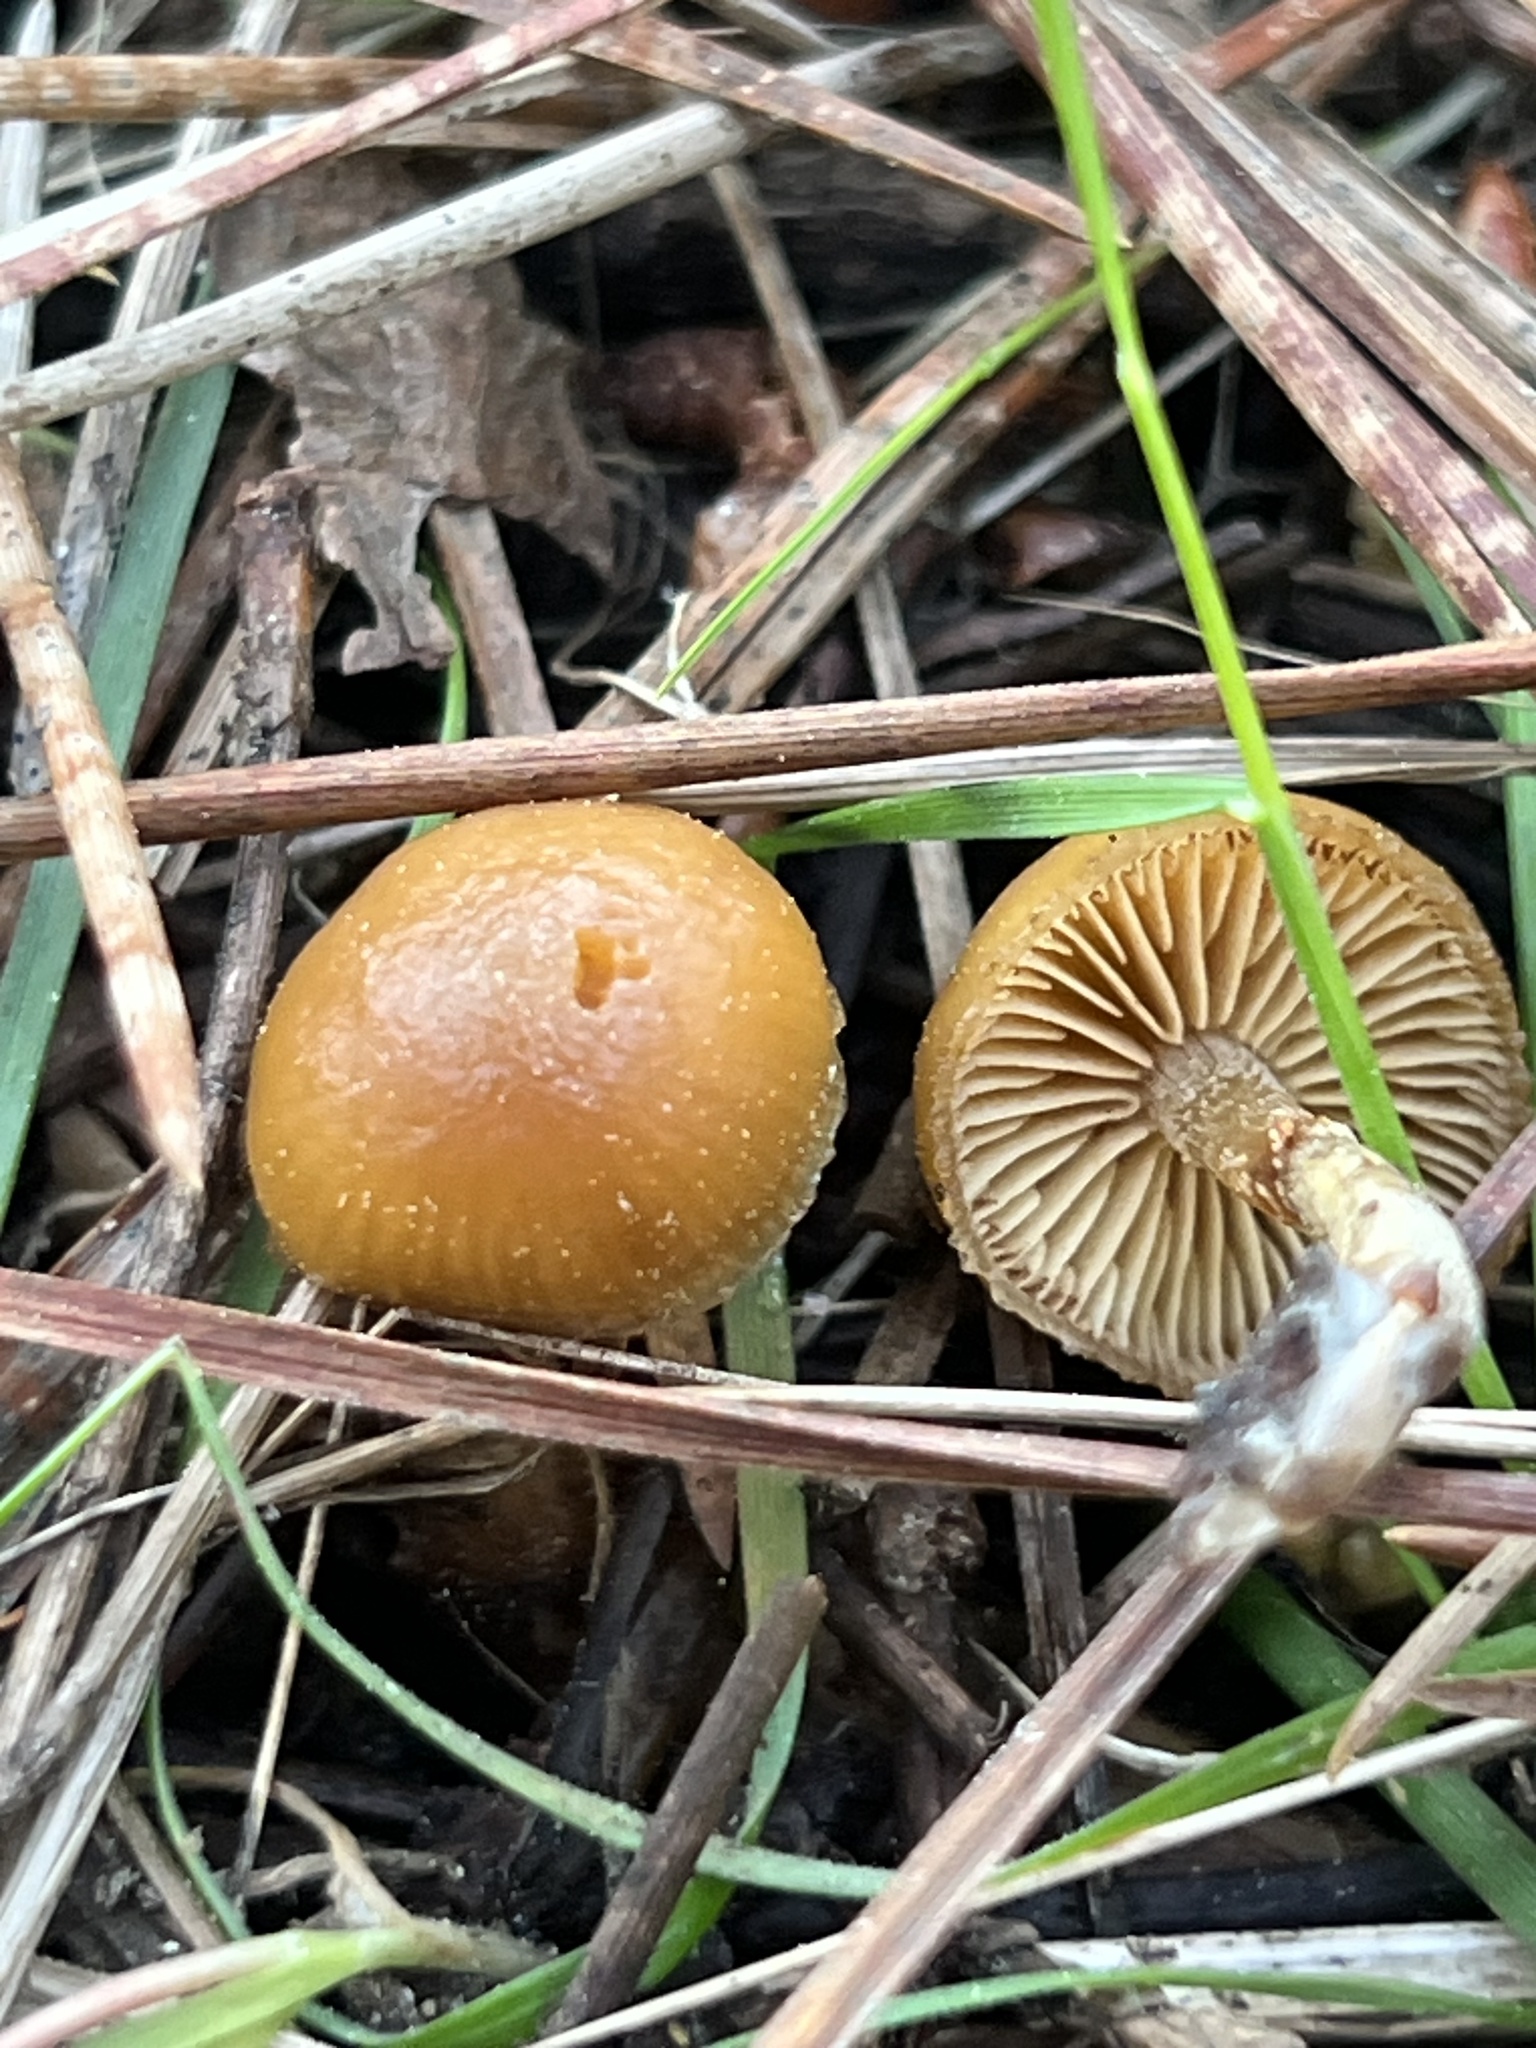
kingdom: Fungi
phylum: Basidiomycota
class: Agaricomycetes
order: Agaricales
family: Hymenogastraceae
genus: Galerina
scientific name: Galerina marginata
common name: Funeral bell
